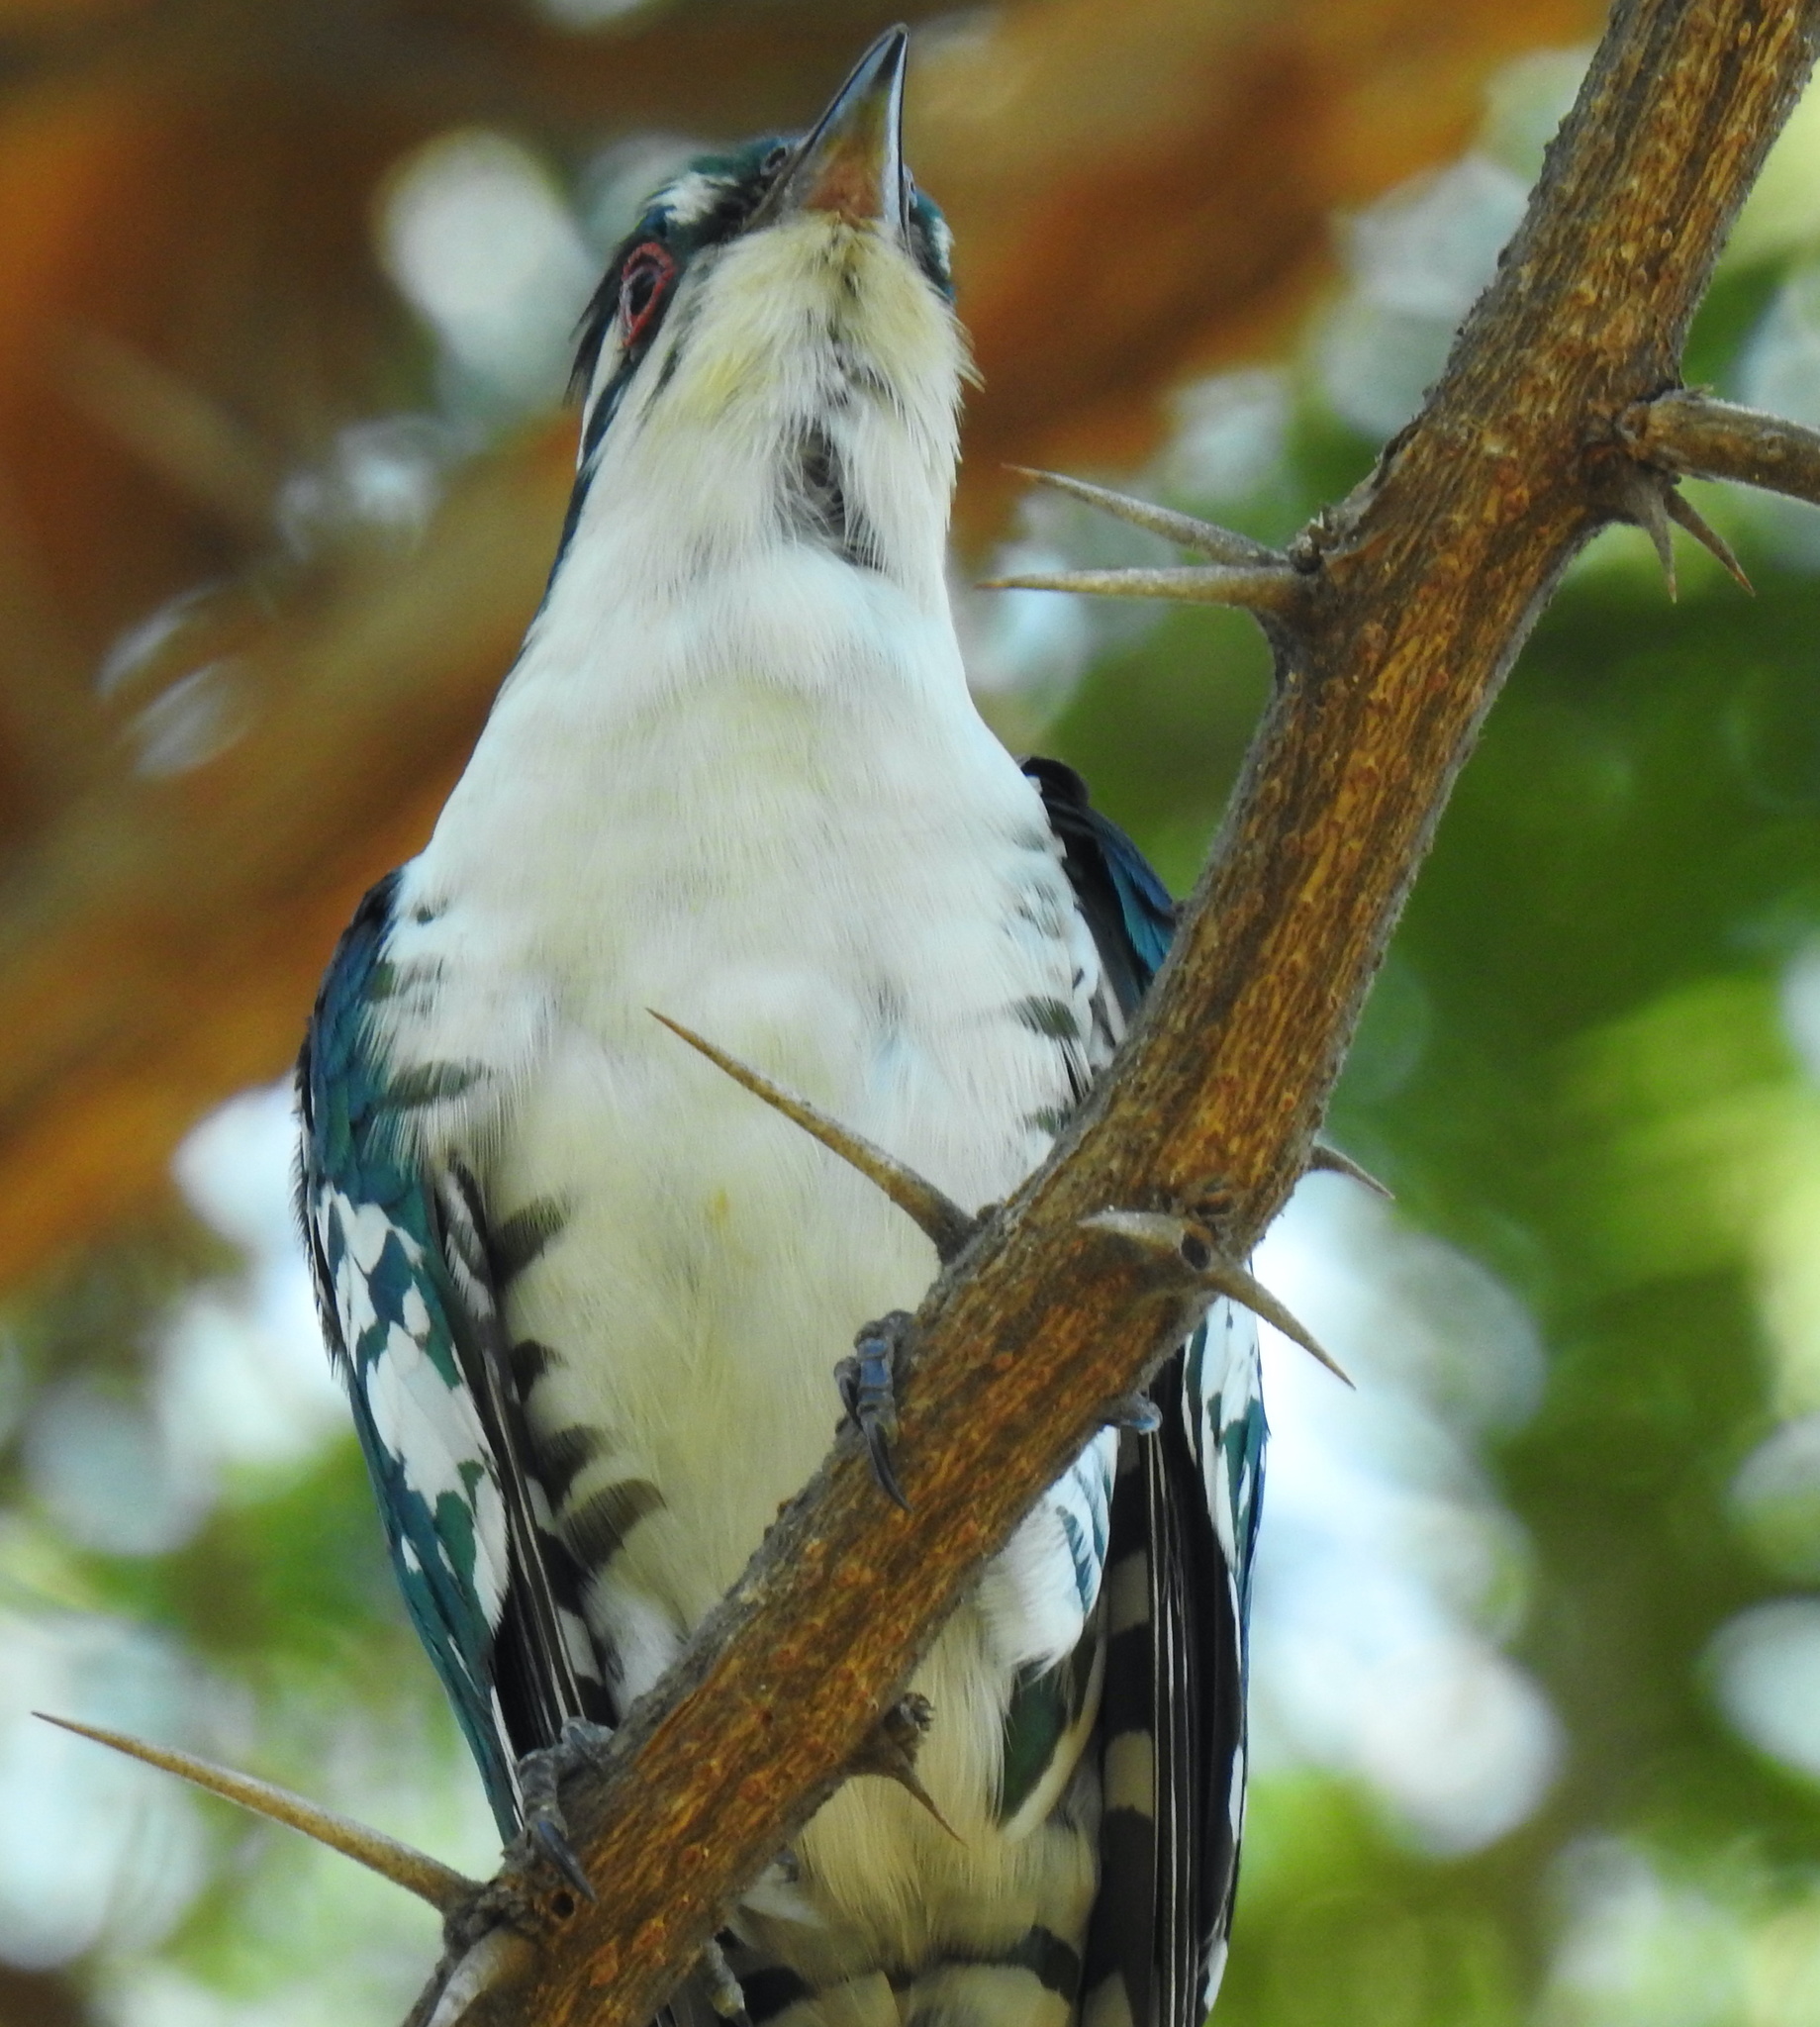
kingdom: Animalia
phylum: Chordata
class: Aves
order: Cuculiformes
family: Cuculidae
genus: Chrysococcyx
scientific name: Chrysococcyx caprius
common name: Diederik cuckoo
